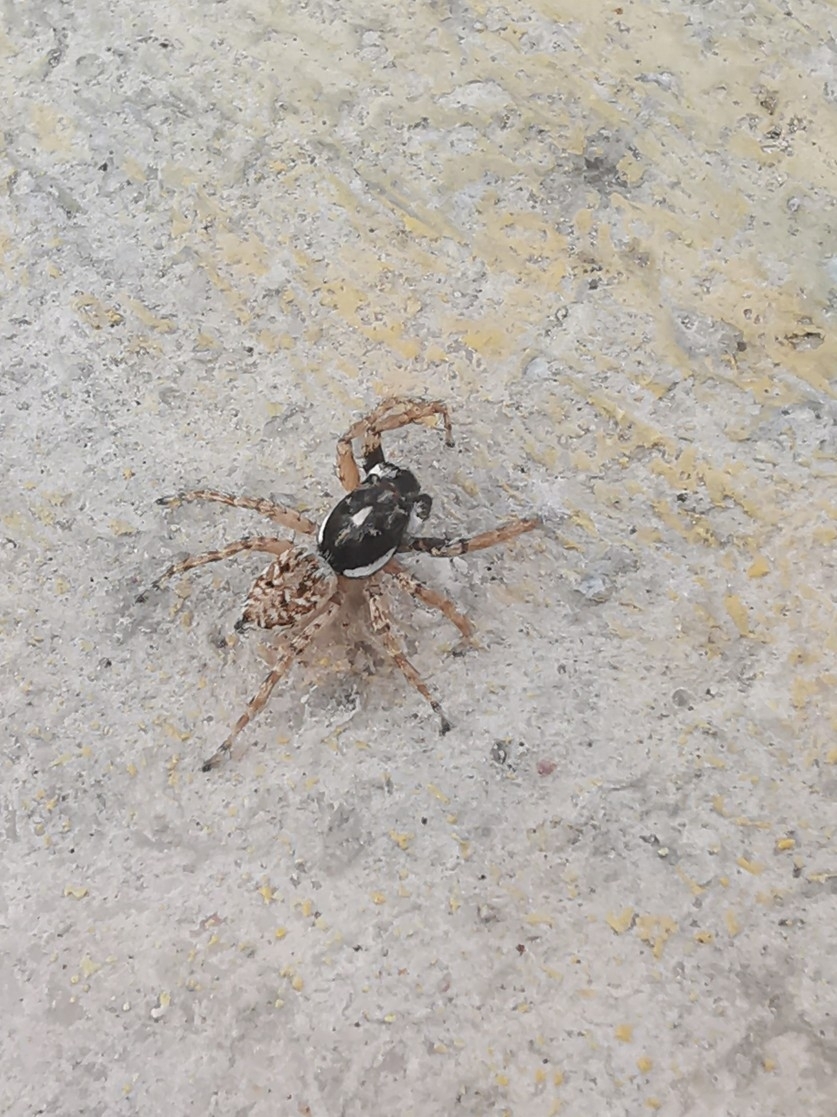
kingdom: Animalia
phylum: Arthropoda
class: Arachnida
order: Araneae
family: Salticidae
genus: Menemerus
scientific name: Menemerus semilimbatus
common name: Jumping spider
